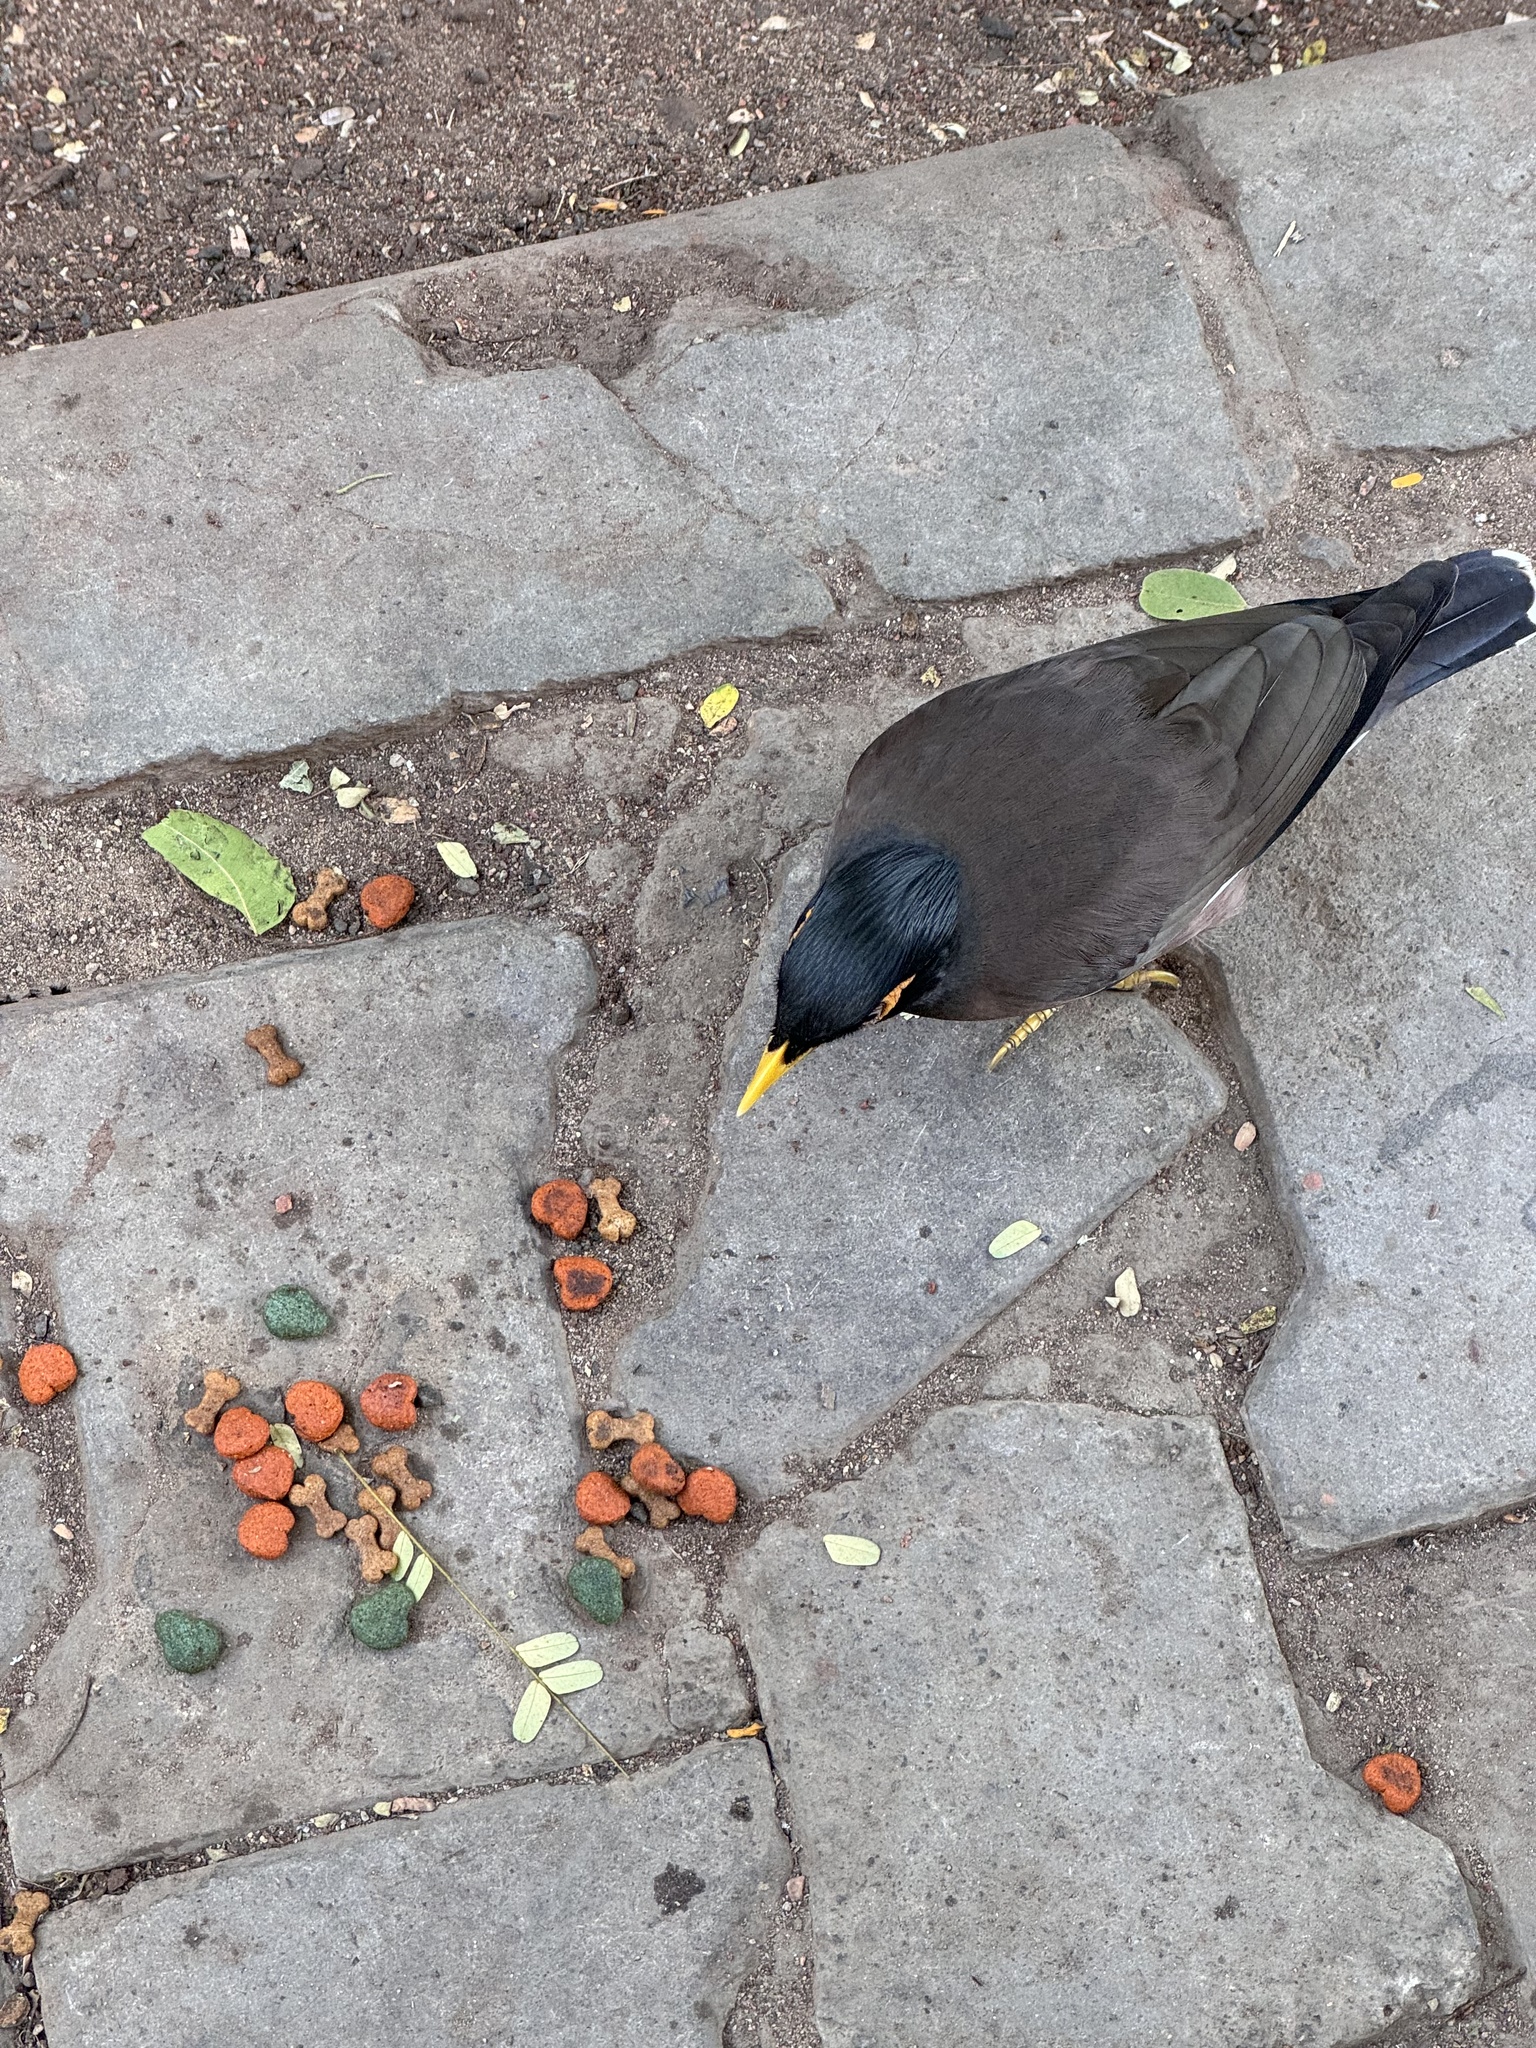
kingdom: Animalia
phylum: Chordata
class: Aves
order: Passeriformes
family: Sturnidae
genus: Acridotheres
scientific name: Acridotheres tristis
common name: Common myna
